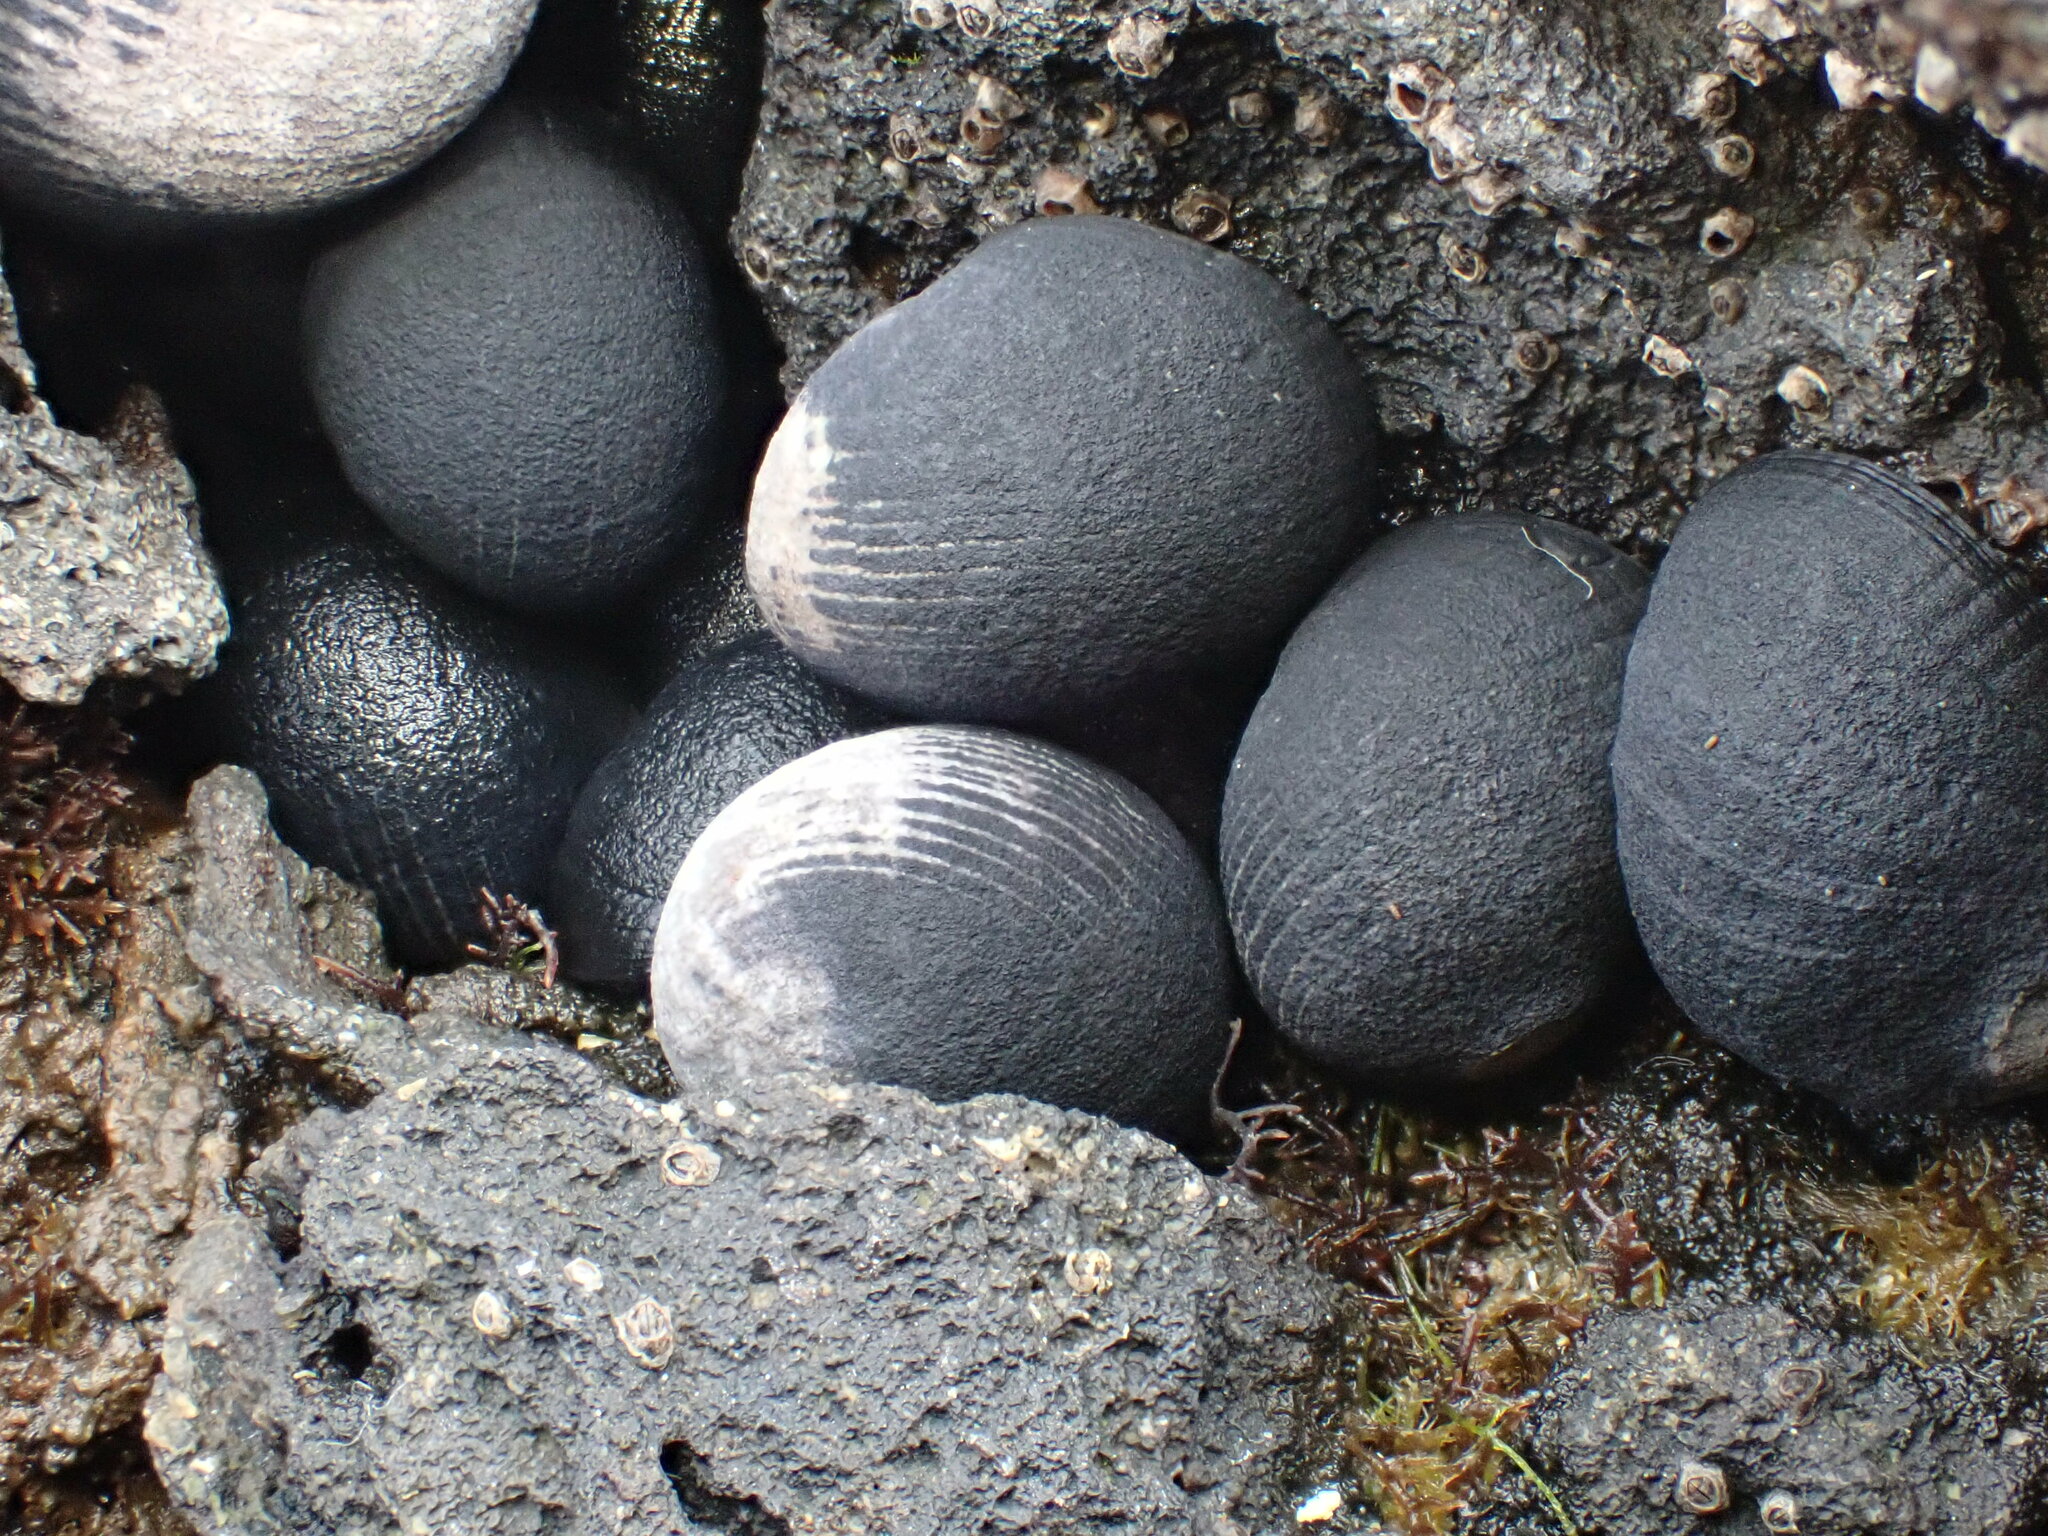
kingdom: Animalia
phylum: Mollusca
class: Gastropoda
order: Cycloneritida
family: Neritidae
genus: Nerita
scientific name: Nerita melanotragus
